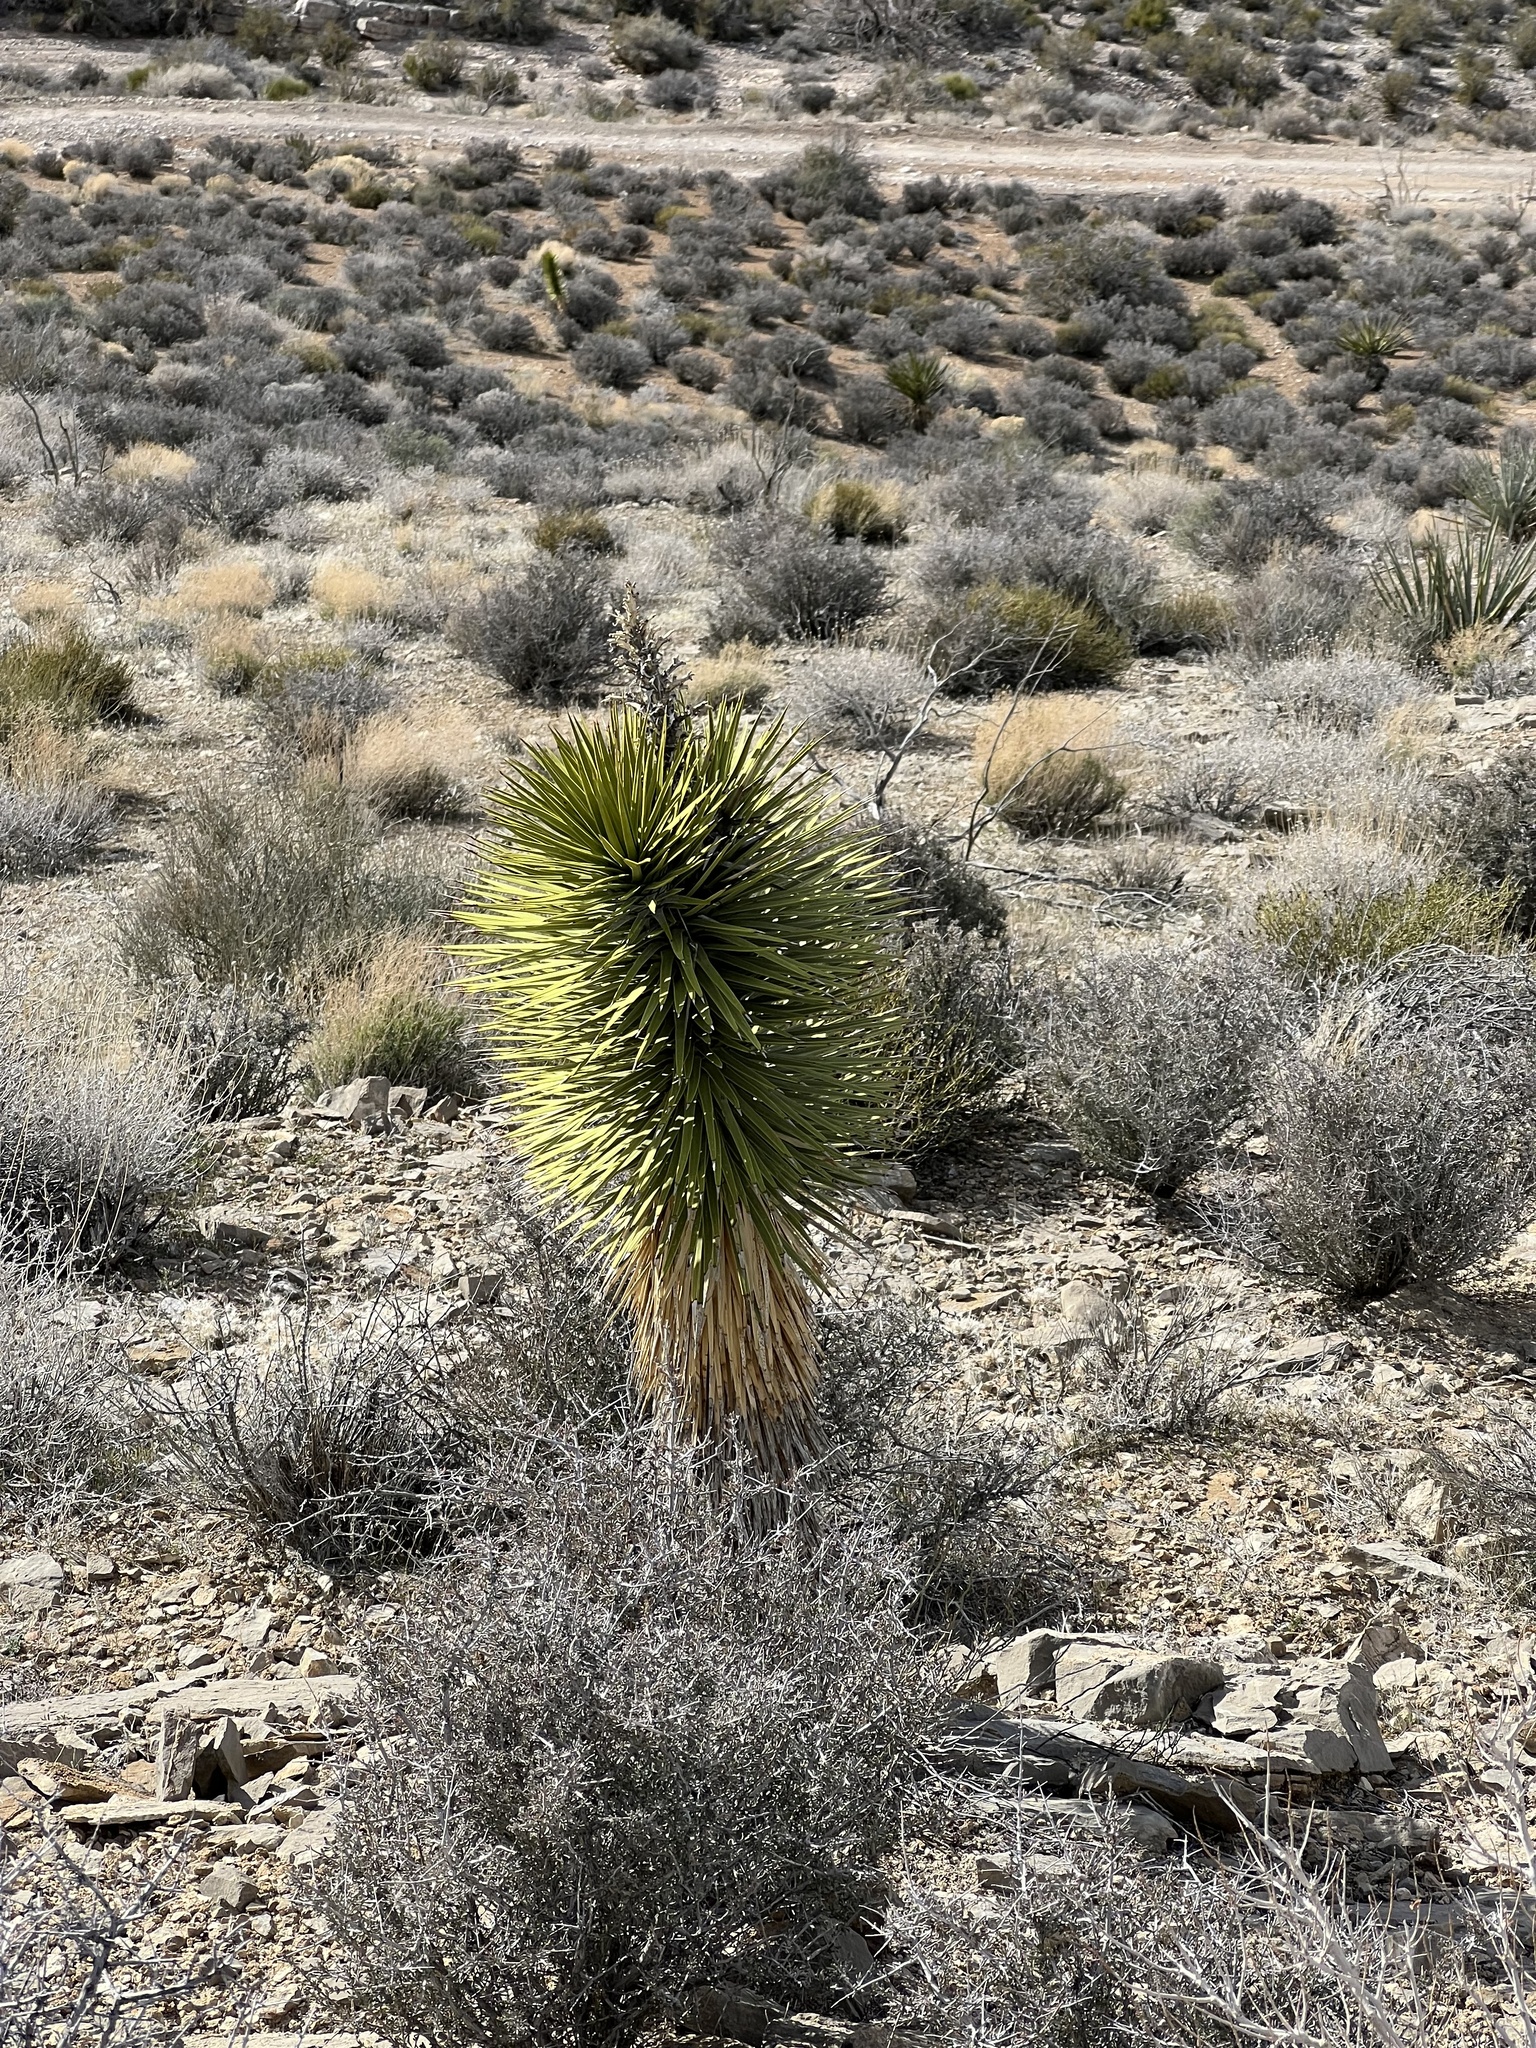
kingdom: Plantae
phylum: Tracheophyta
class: Liliopsida
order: Asparagales
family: Asparagaceae
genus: Yucca
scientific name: Yucca brevifolia
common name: Joshua tree
